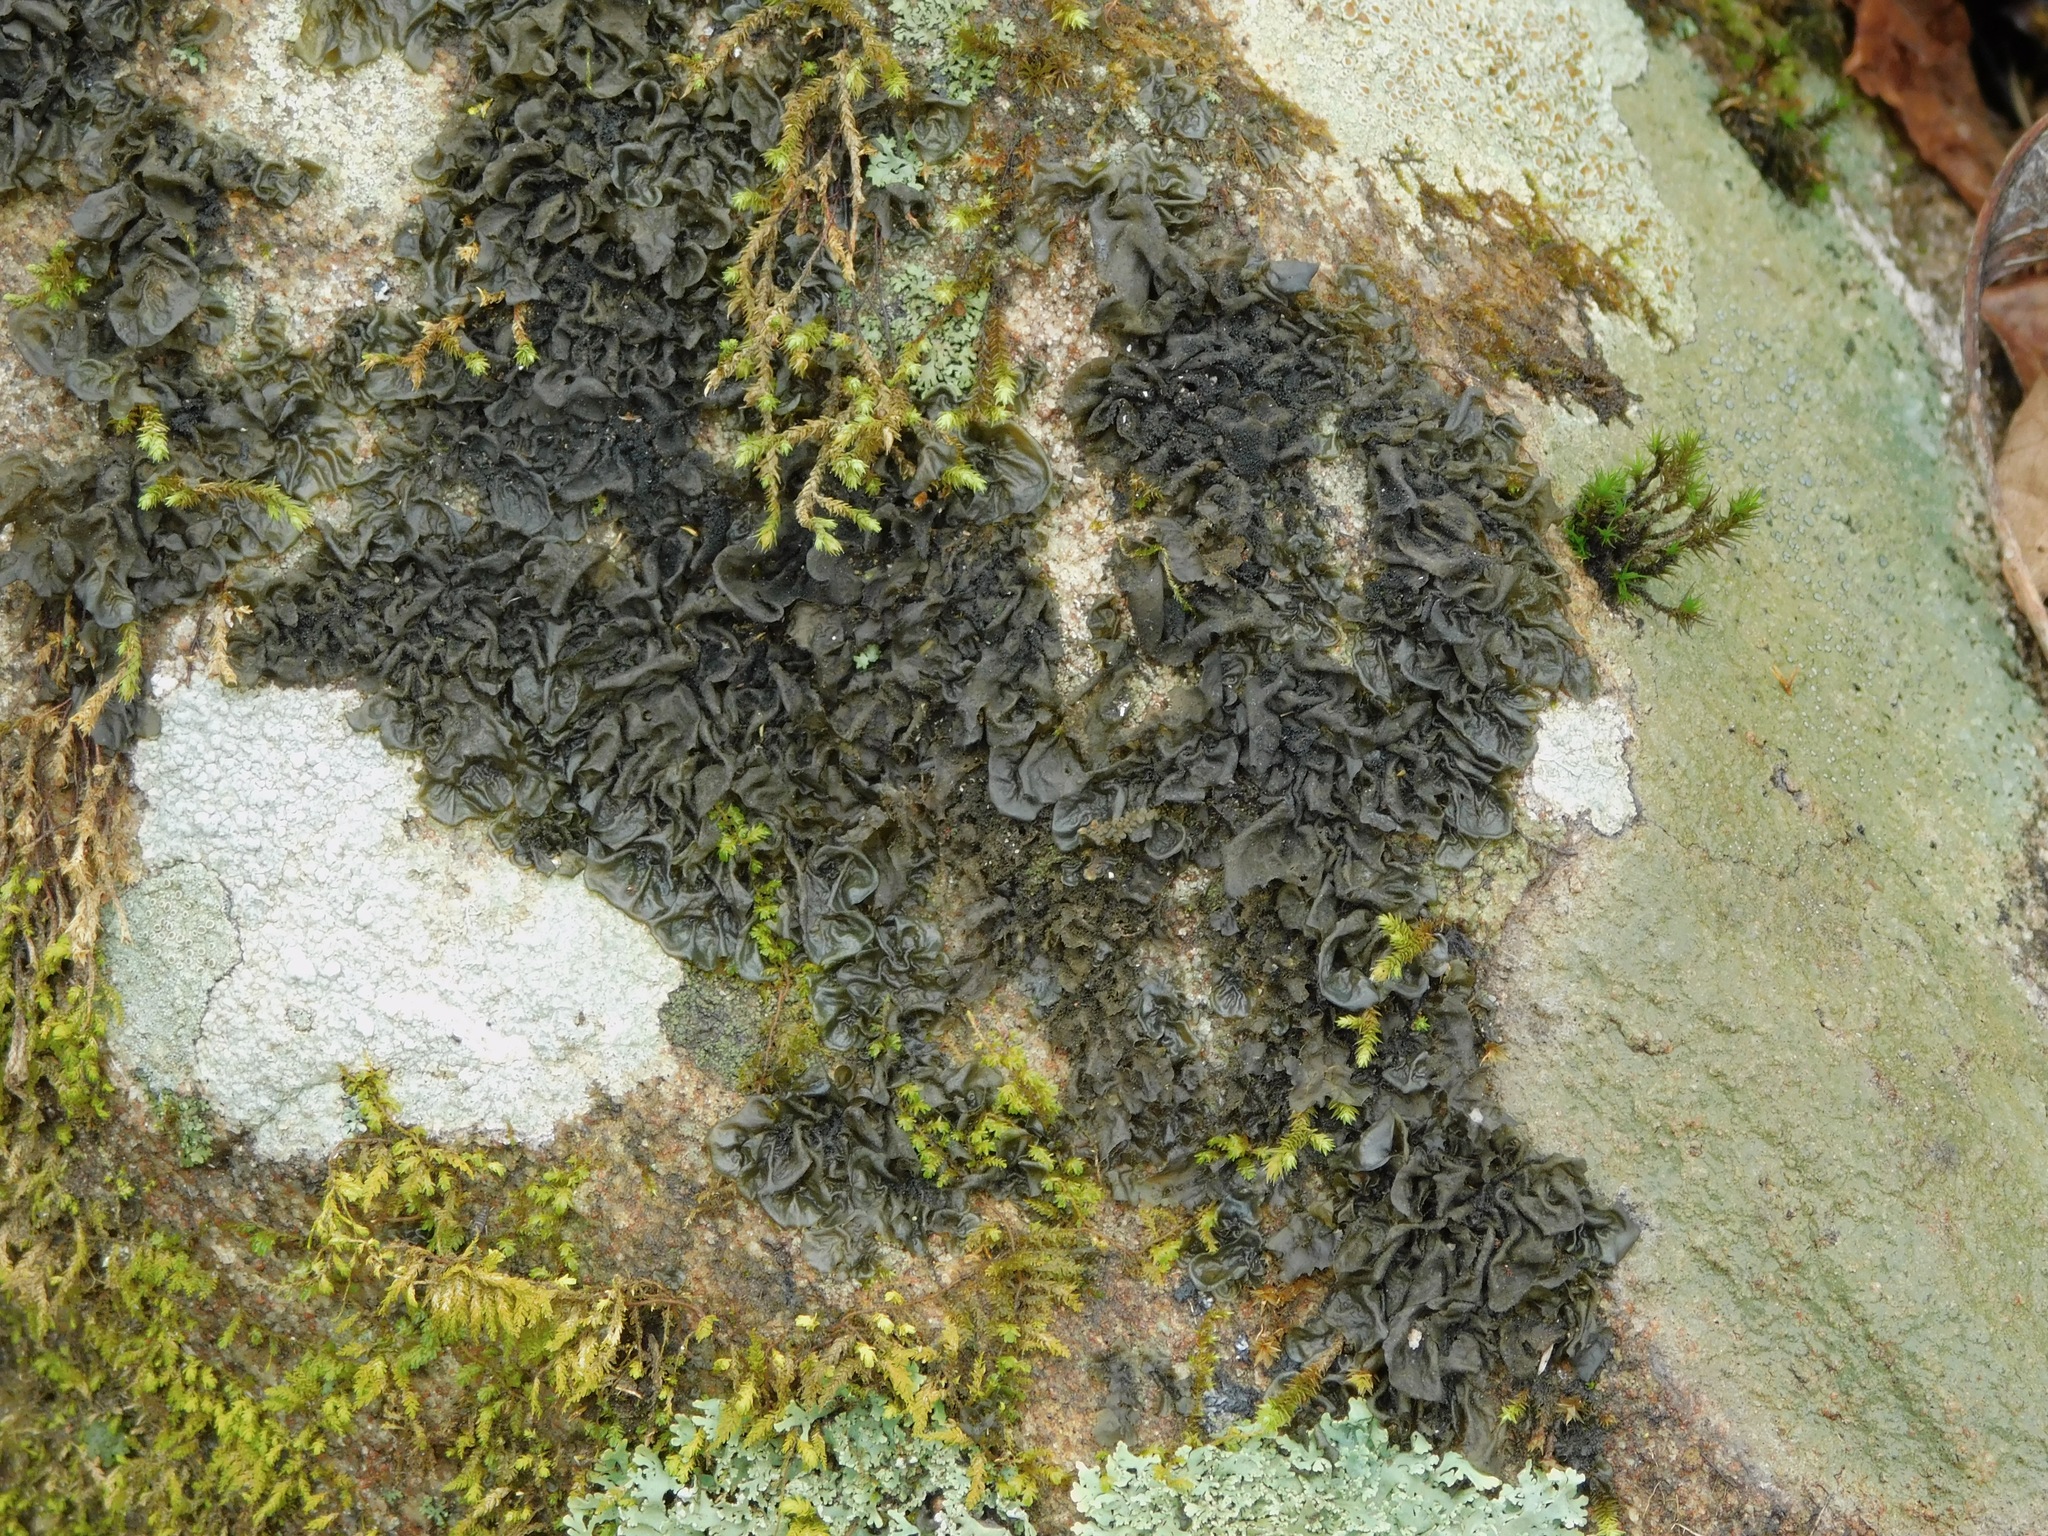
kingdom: Fungi
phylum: Ascomycota
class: Lecanoromycetes
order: Peltigerales
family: Collemataceae
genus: Collema
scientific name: Collema subflaccidum
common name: Tree jelly
